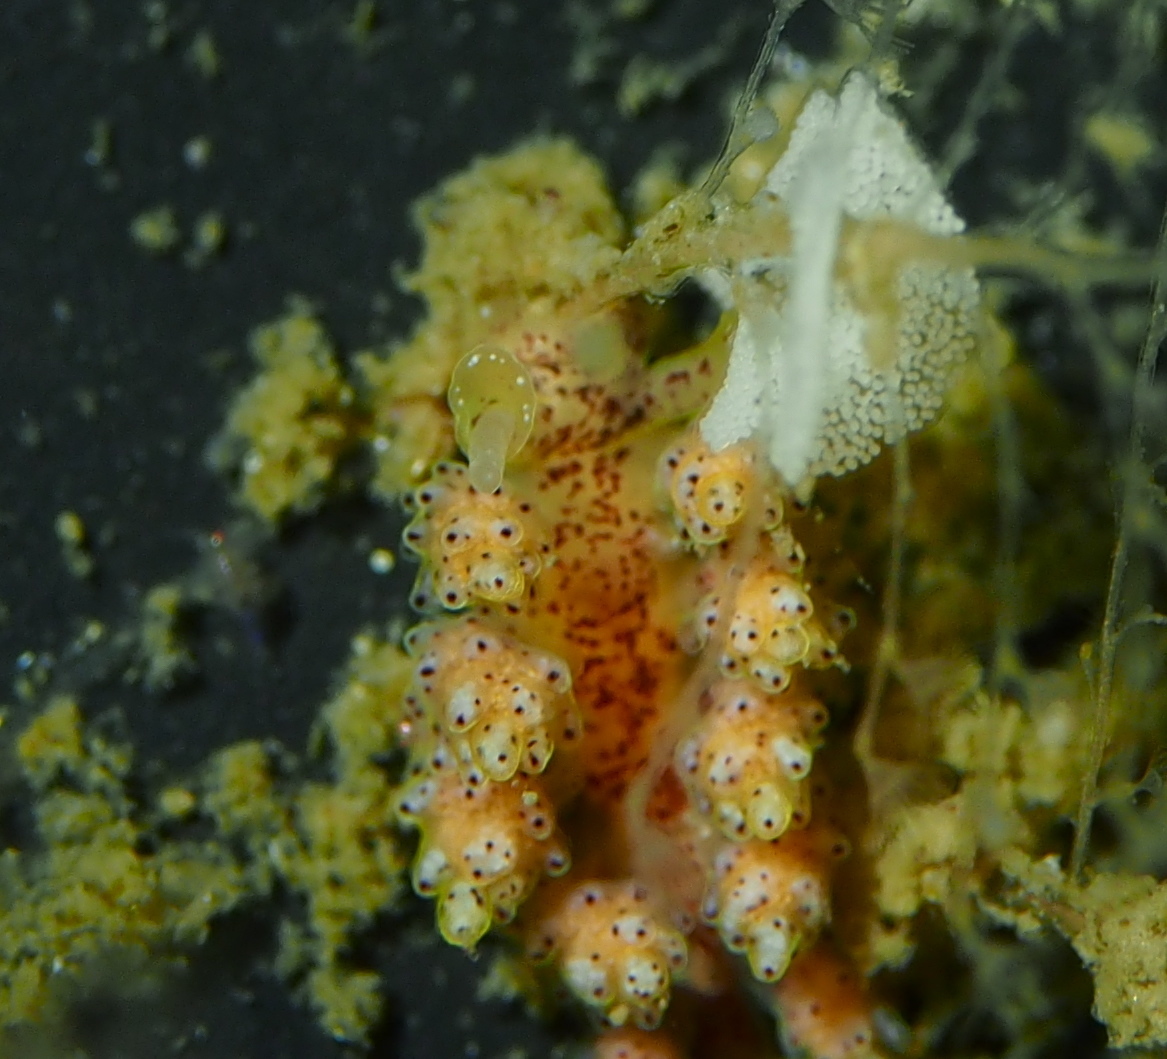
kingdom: Animalia
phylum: Mollusca
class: Gastropoda
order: Nudibranchia
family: Dotidae
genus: Doto
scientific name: Doto maculata
